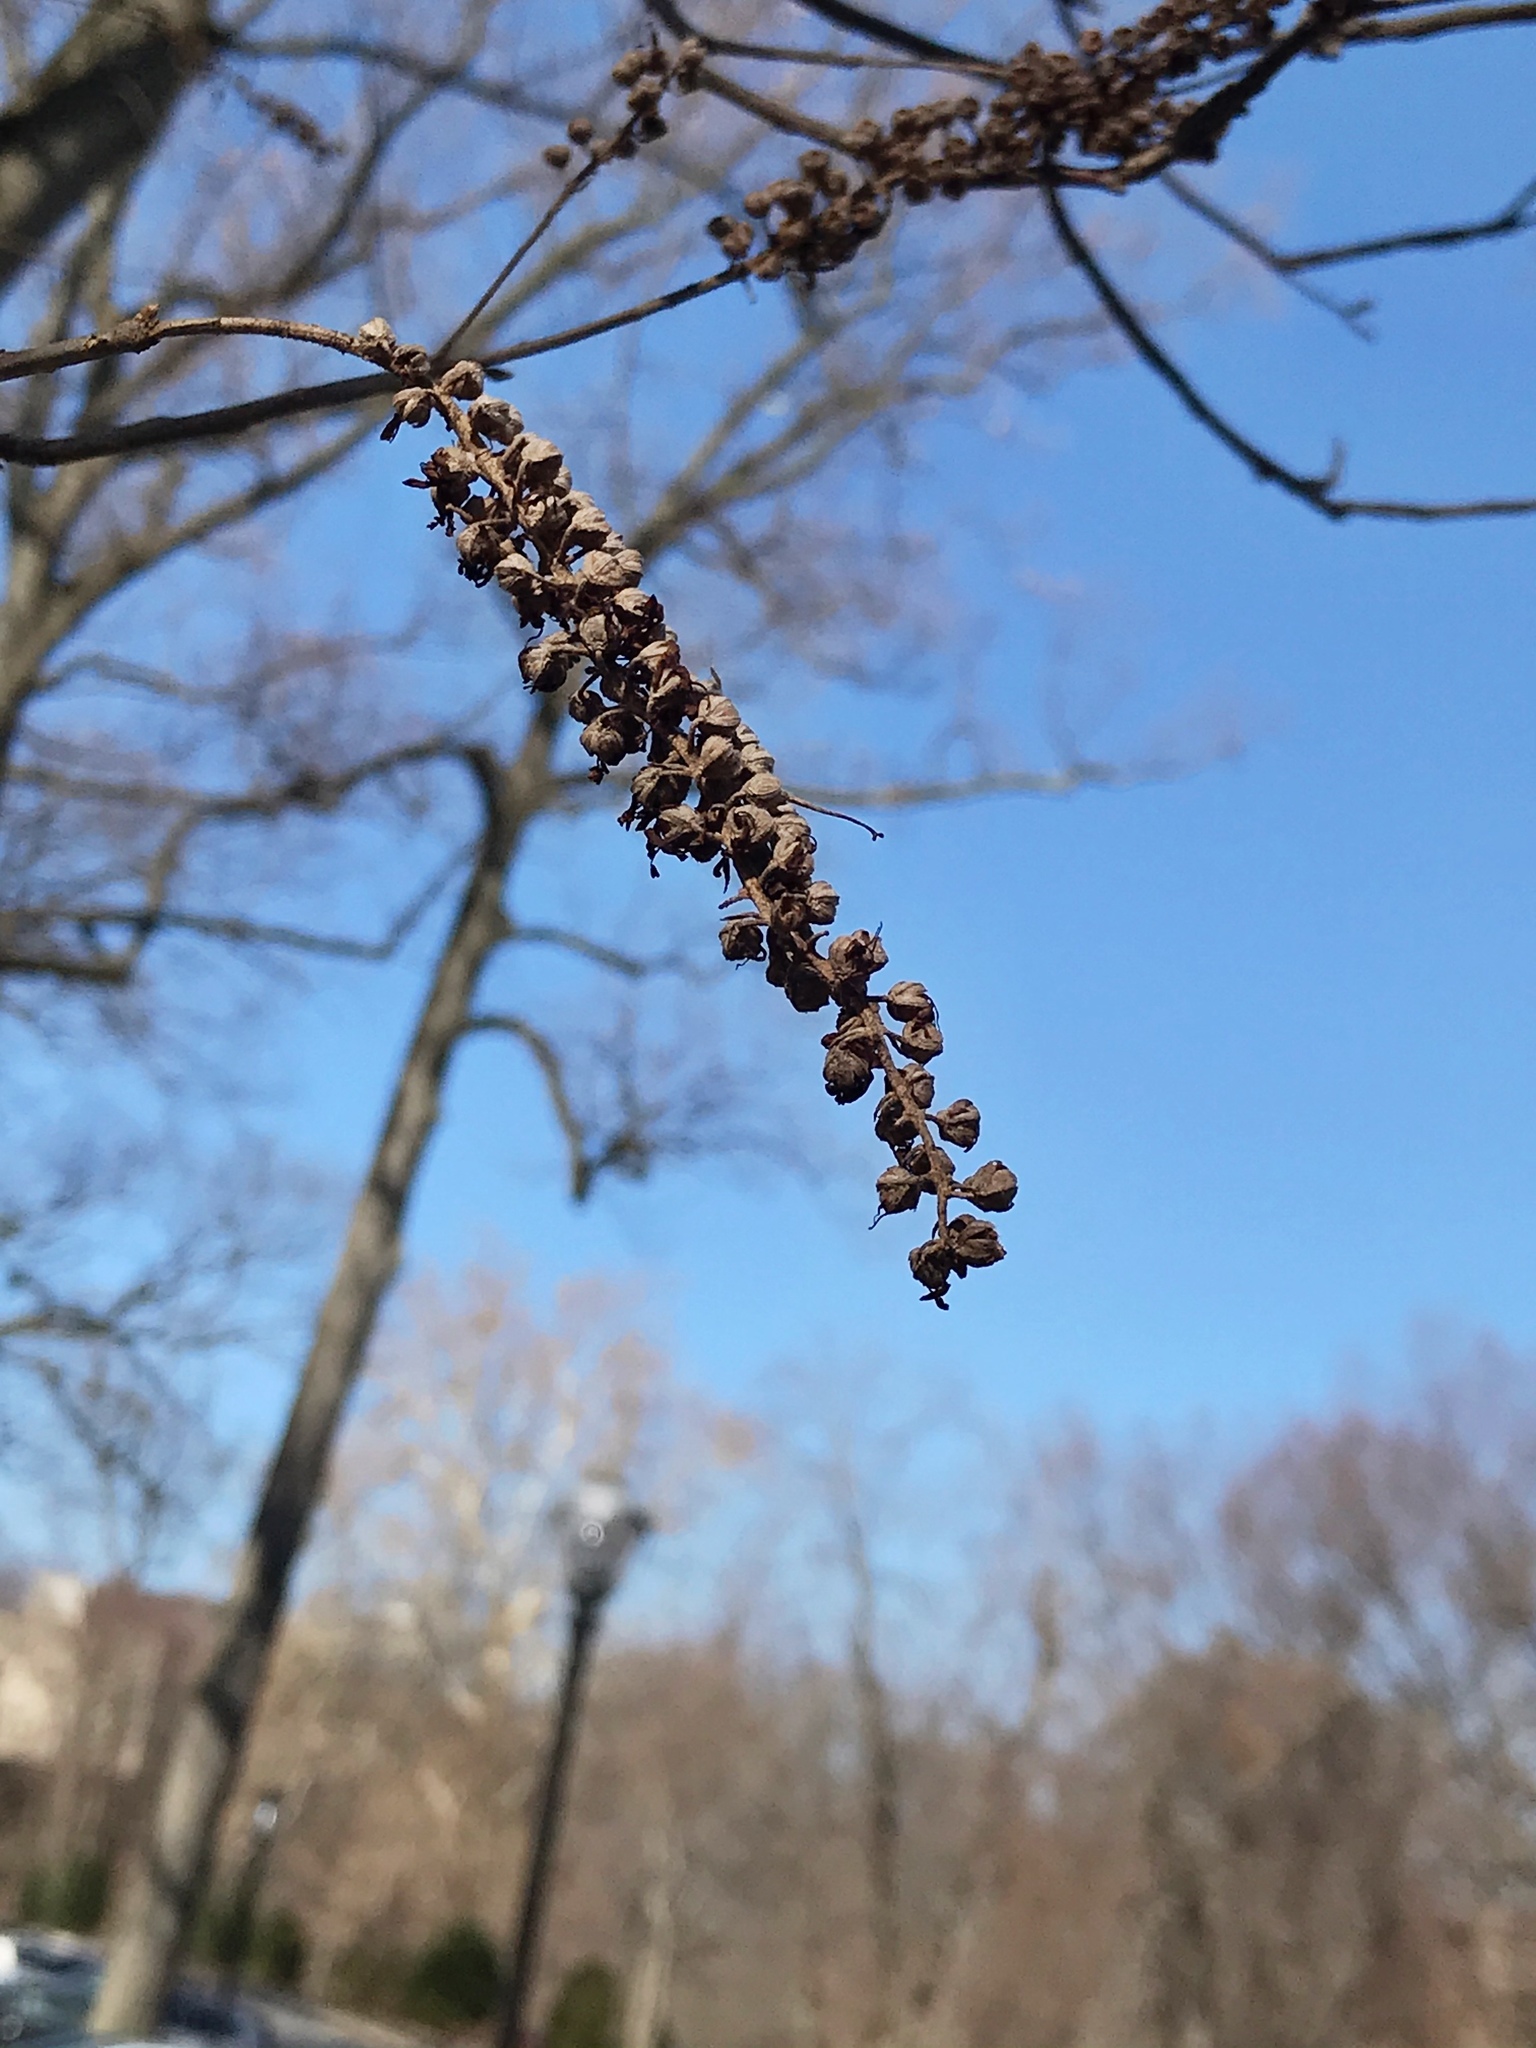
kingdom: Plantae
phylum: Tracheophyta
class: Magnoliopsida
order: Ericales
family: Clethraceae
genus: Clethra
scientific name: Clethra alnifolia
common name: Sweet pepperbush
